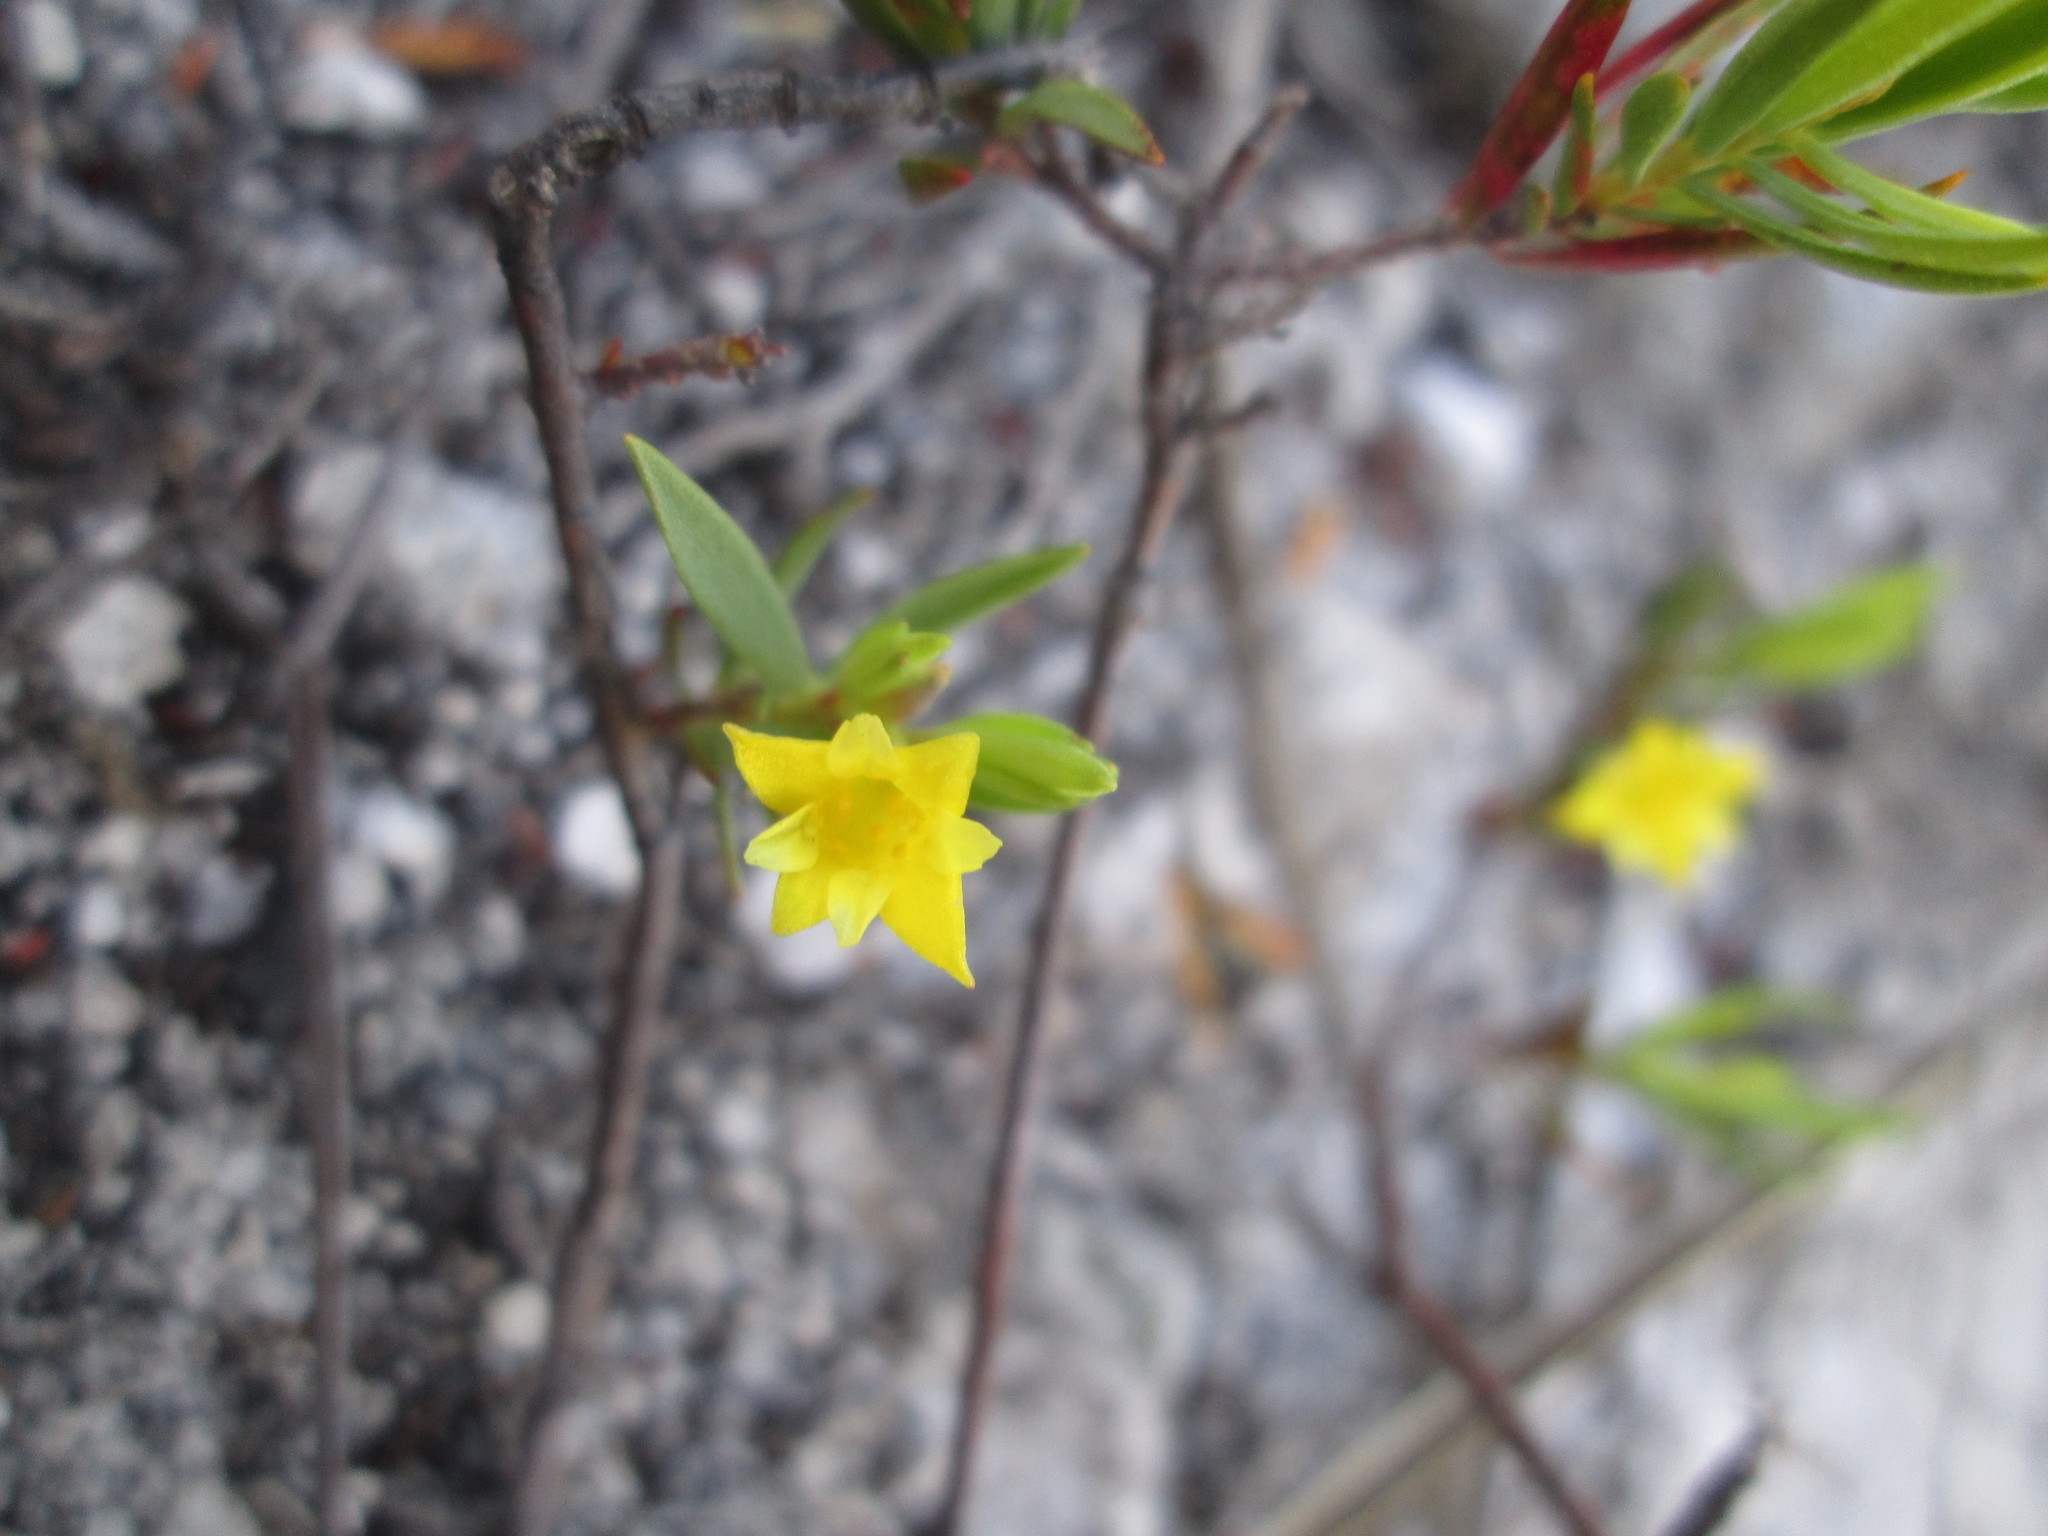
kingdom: Plantae
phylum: Tracheophyta
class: Magnoliopsida
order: Malvales
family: Thymelaeaceae
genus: Gnidia
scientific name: Gnidia juniperifolia
